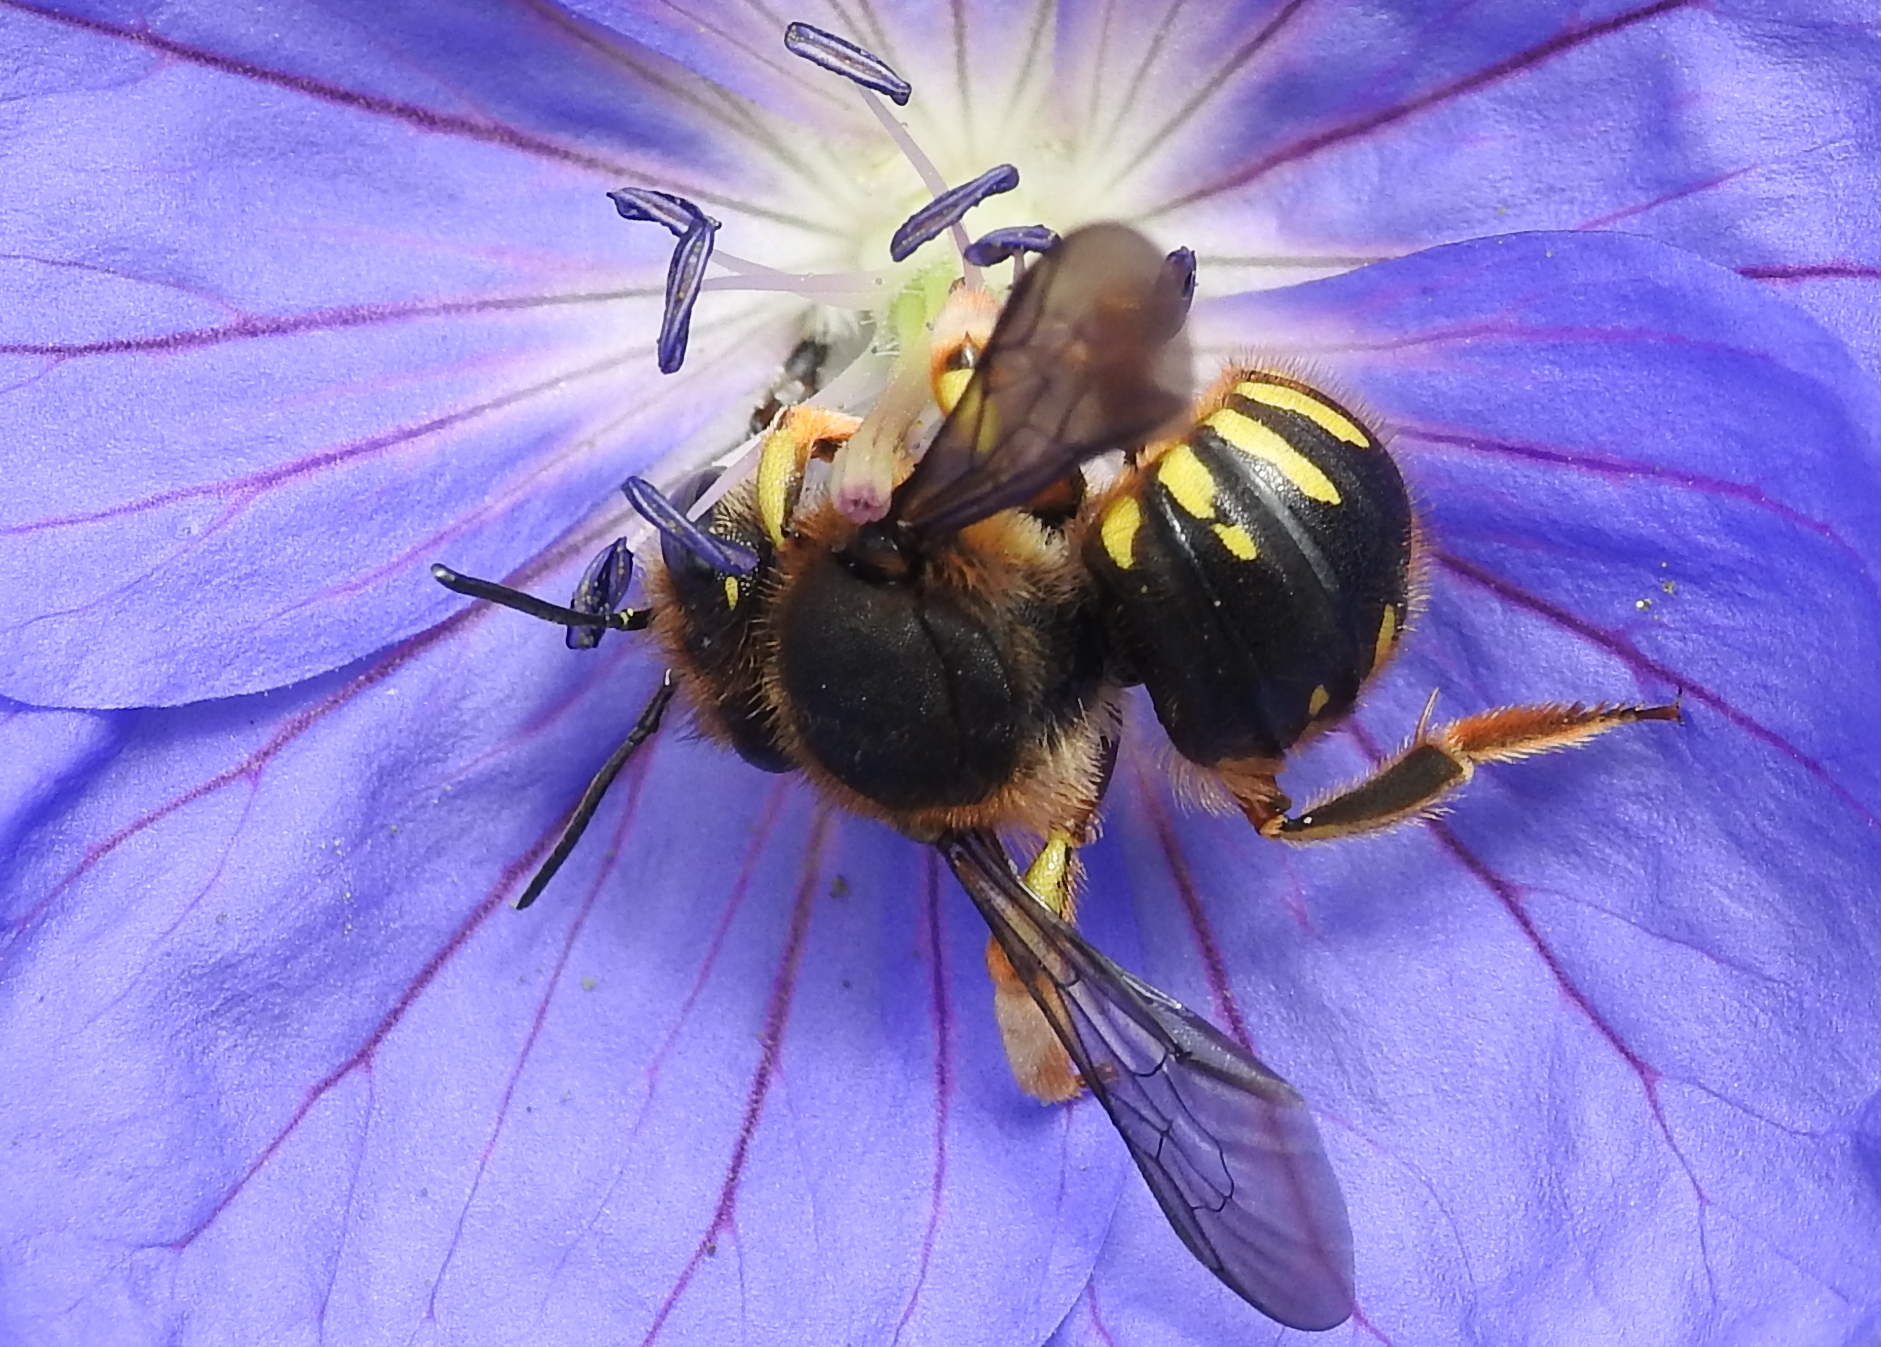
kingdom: Animalia
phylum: Arthropoda
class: Insecta
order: Hymenoptera
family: Megachilidae
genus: Anthidium
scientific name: Anthidium manicatum
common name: Wool carder bee
